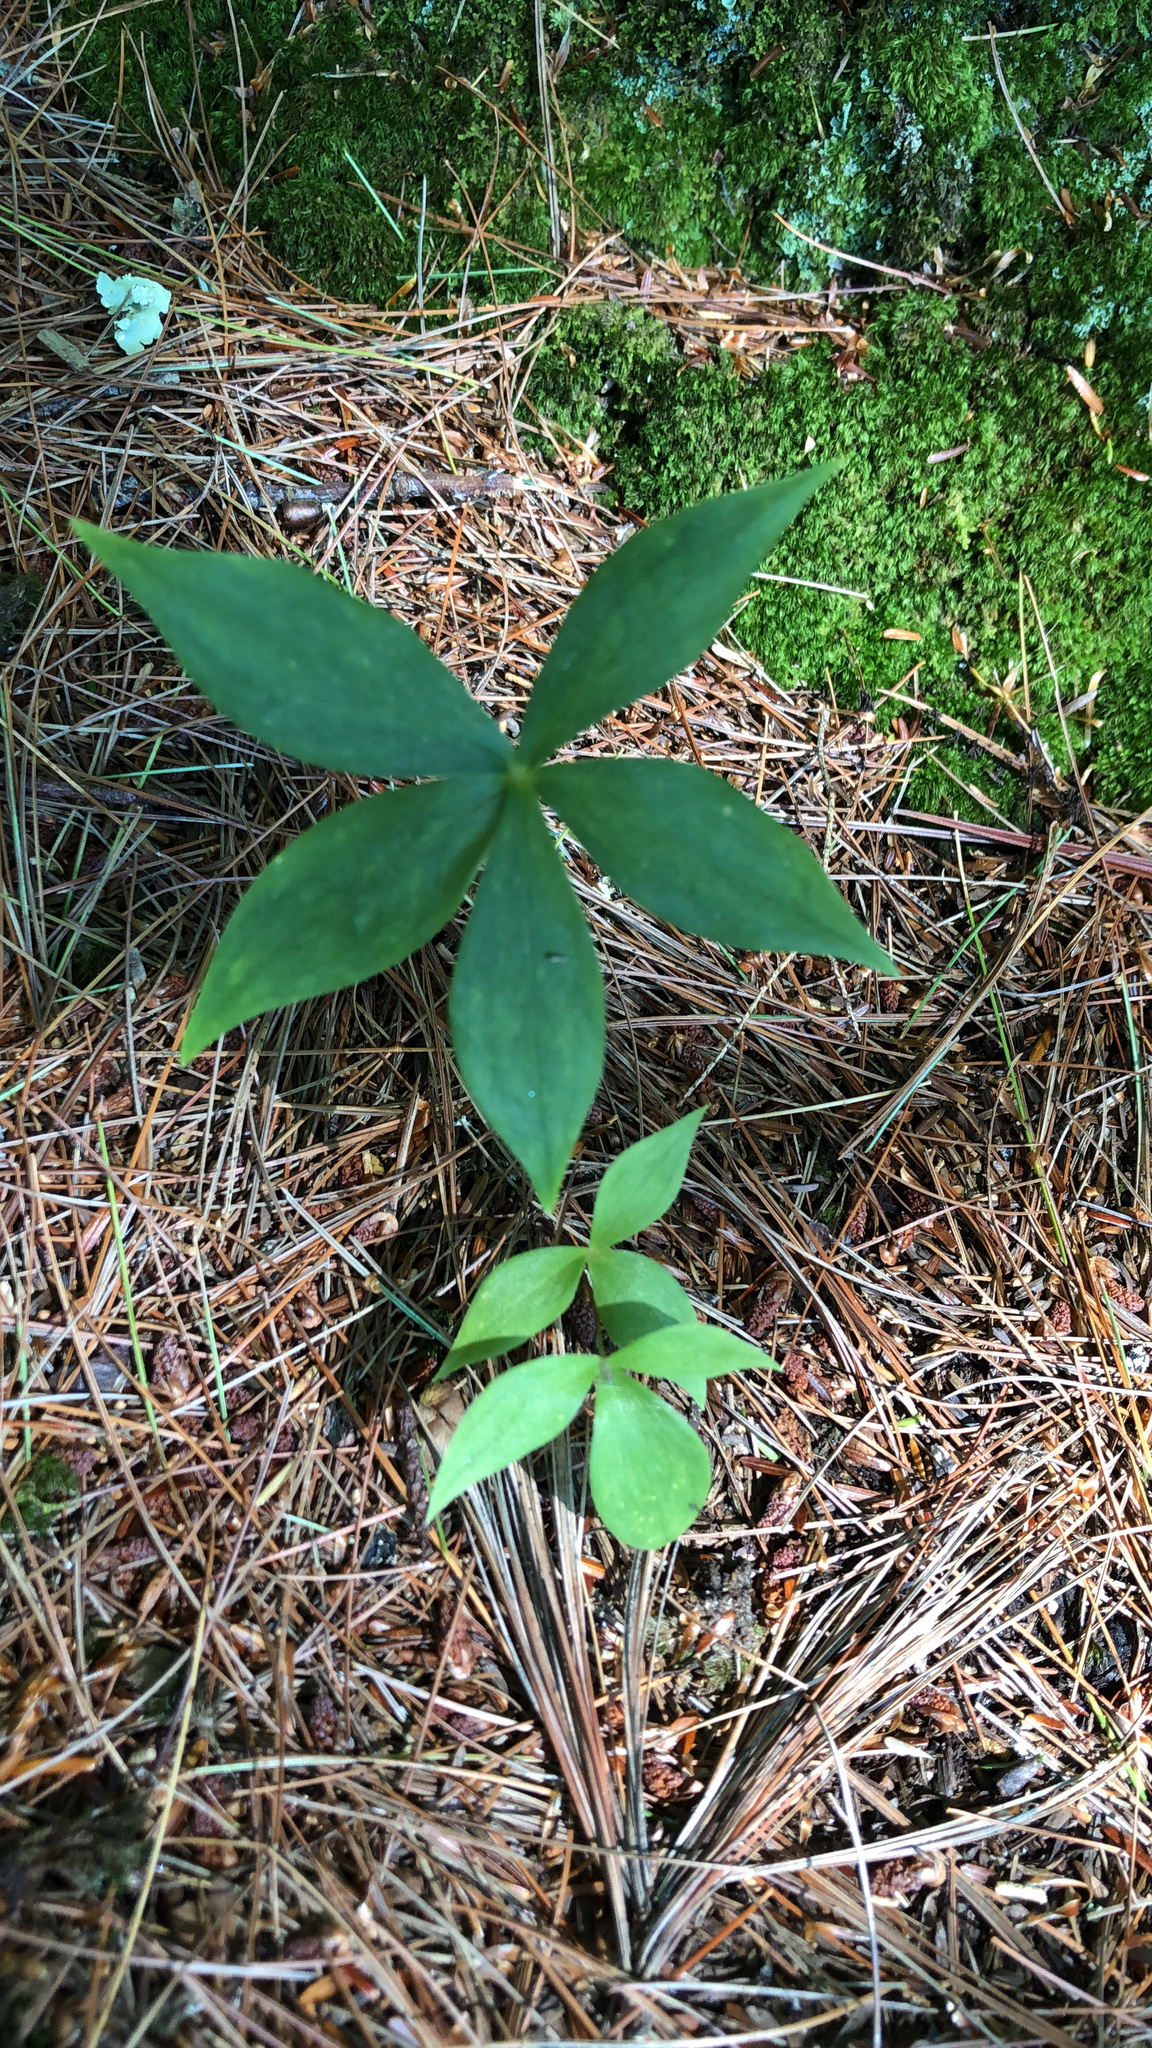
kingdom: Plantae
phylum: Tracheophyta
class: Liliopsida
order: Liliales
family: Liliaceae
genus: Medeola
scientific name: Medeola virginiana
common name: Indian cucumber-root
